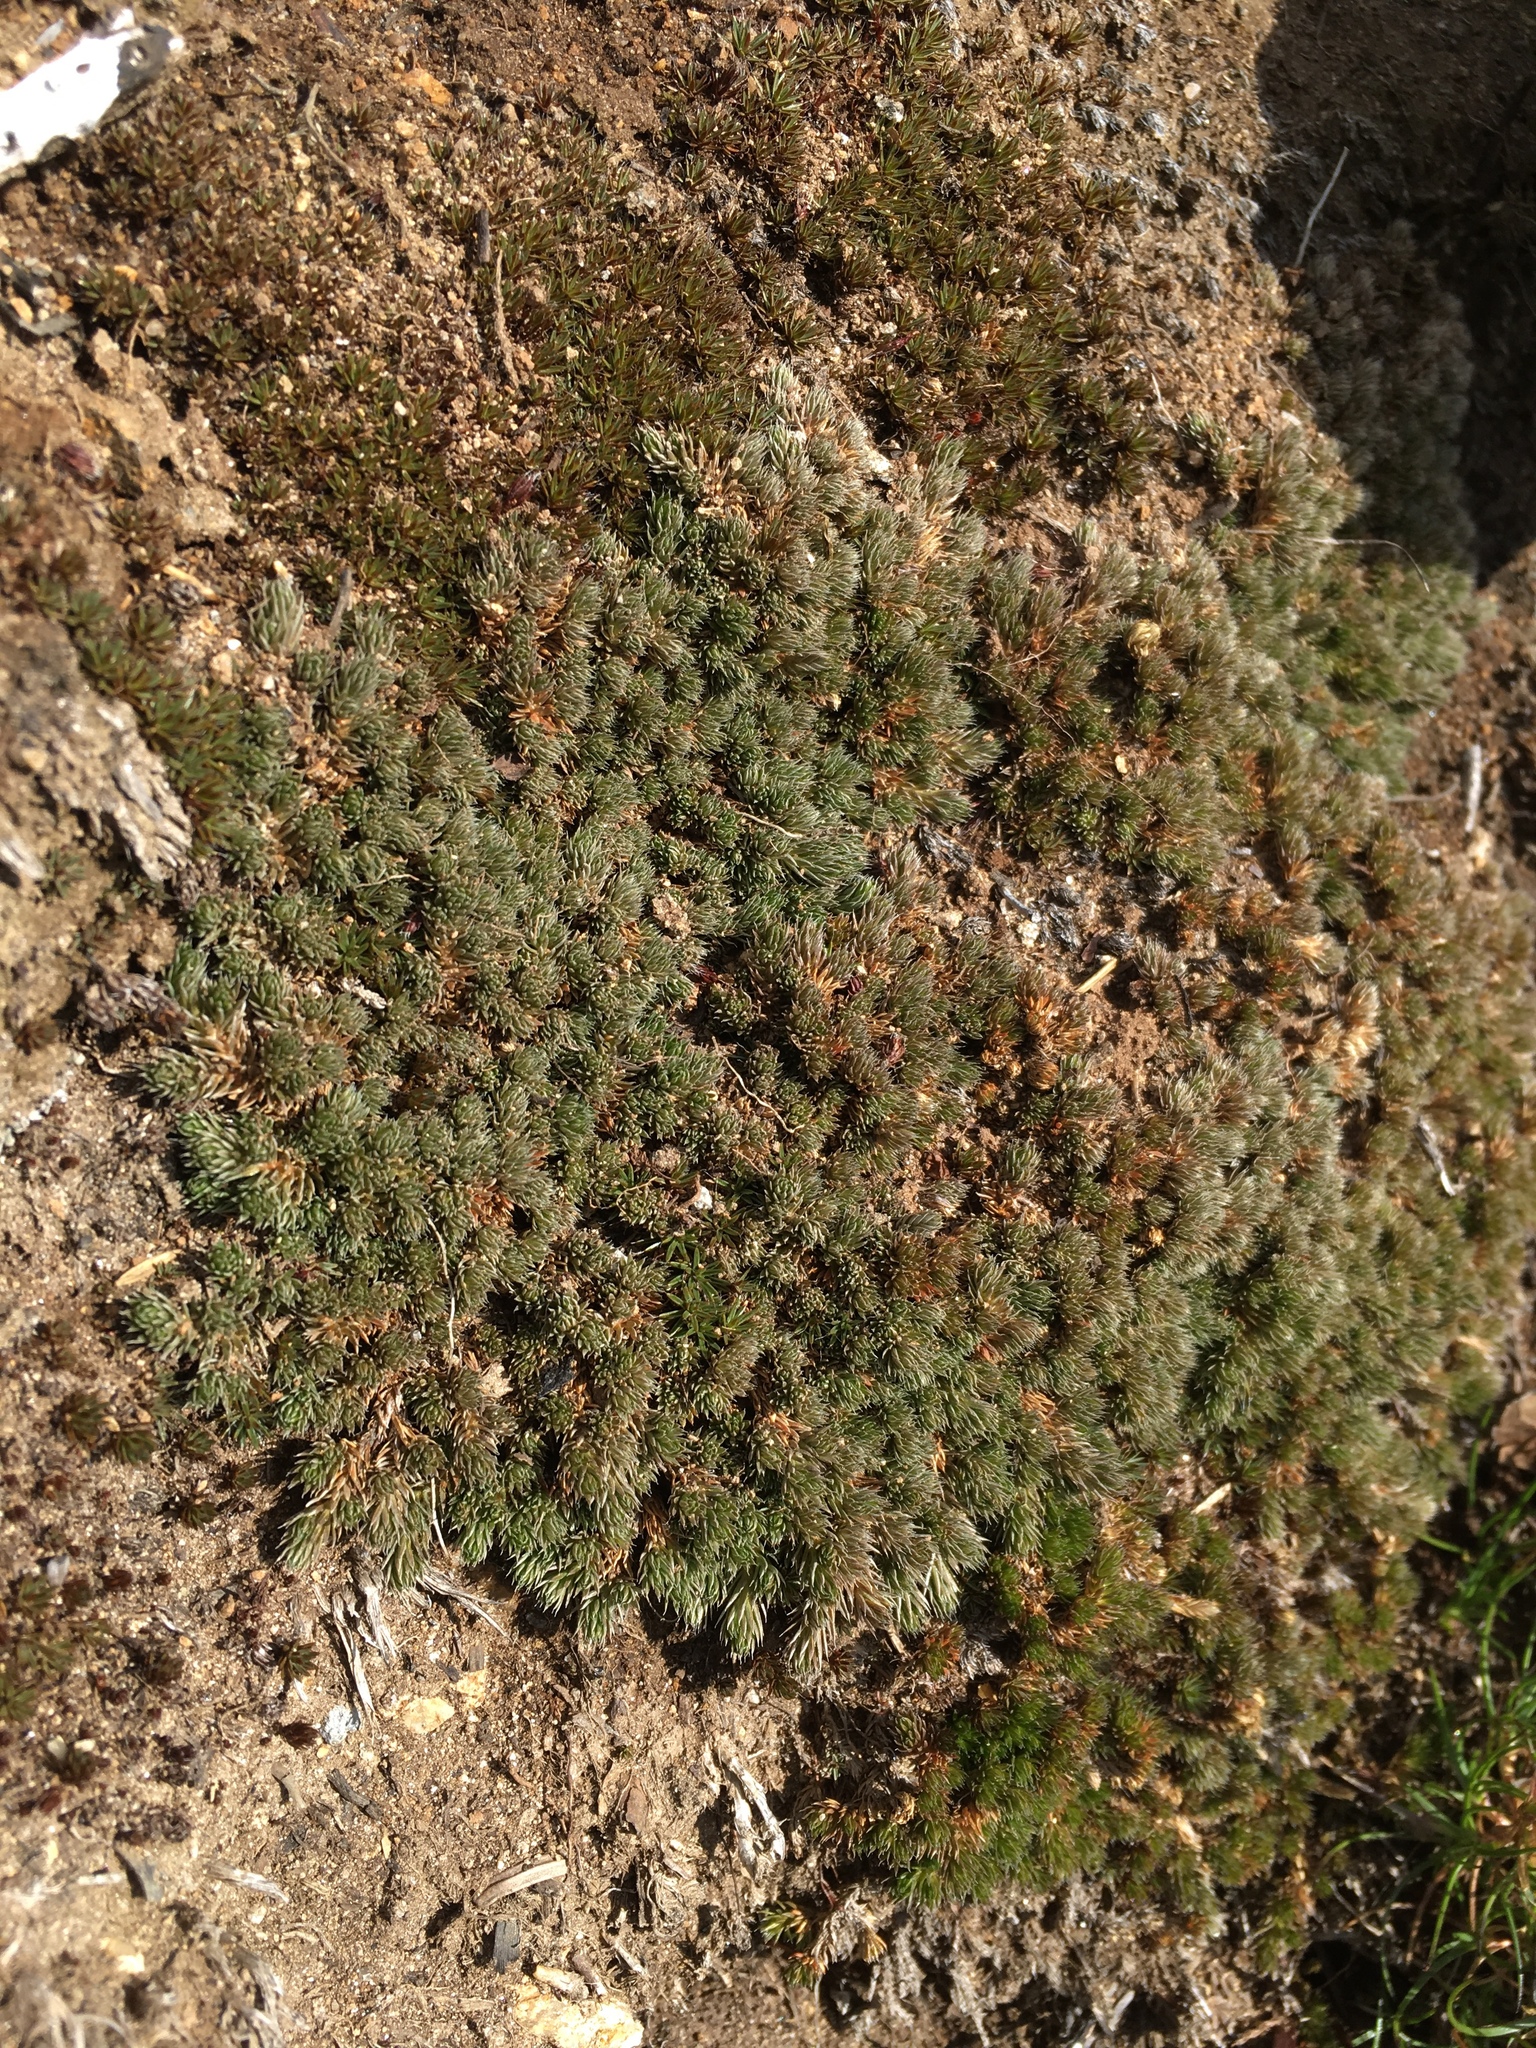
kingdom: Plantae
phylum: Tracheophyta
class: Lycopodiopsida
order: Selaginellales
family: Selaginellaceae
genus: Selaginella
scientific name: Selaginella densa
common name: Mountain spike-moss
